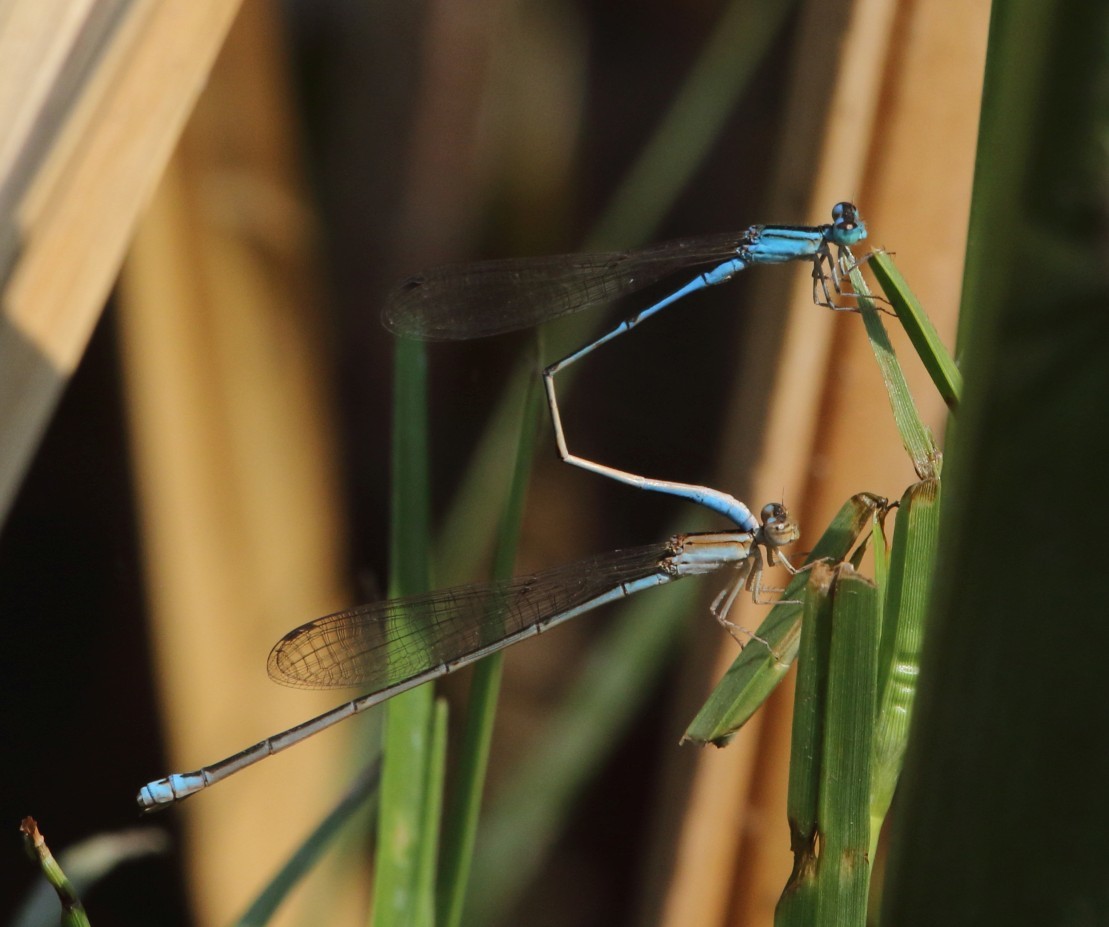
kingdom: Animalia
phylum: Arthropoda
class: Insecta
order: Odonata
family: Coenagrionidae
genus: Africallagma
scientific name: Africallagma fractum
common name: Slender bluet
